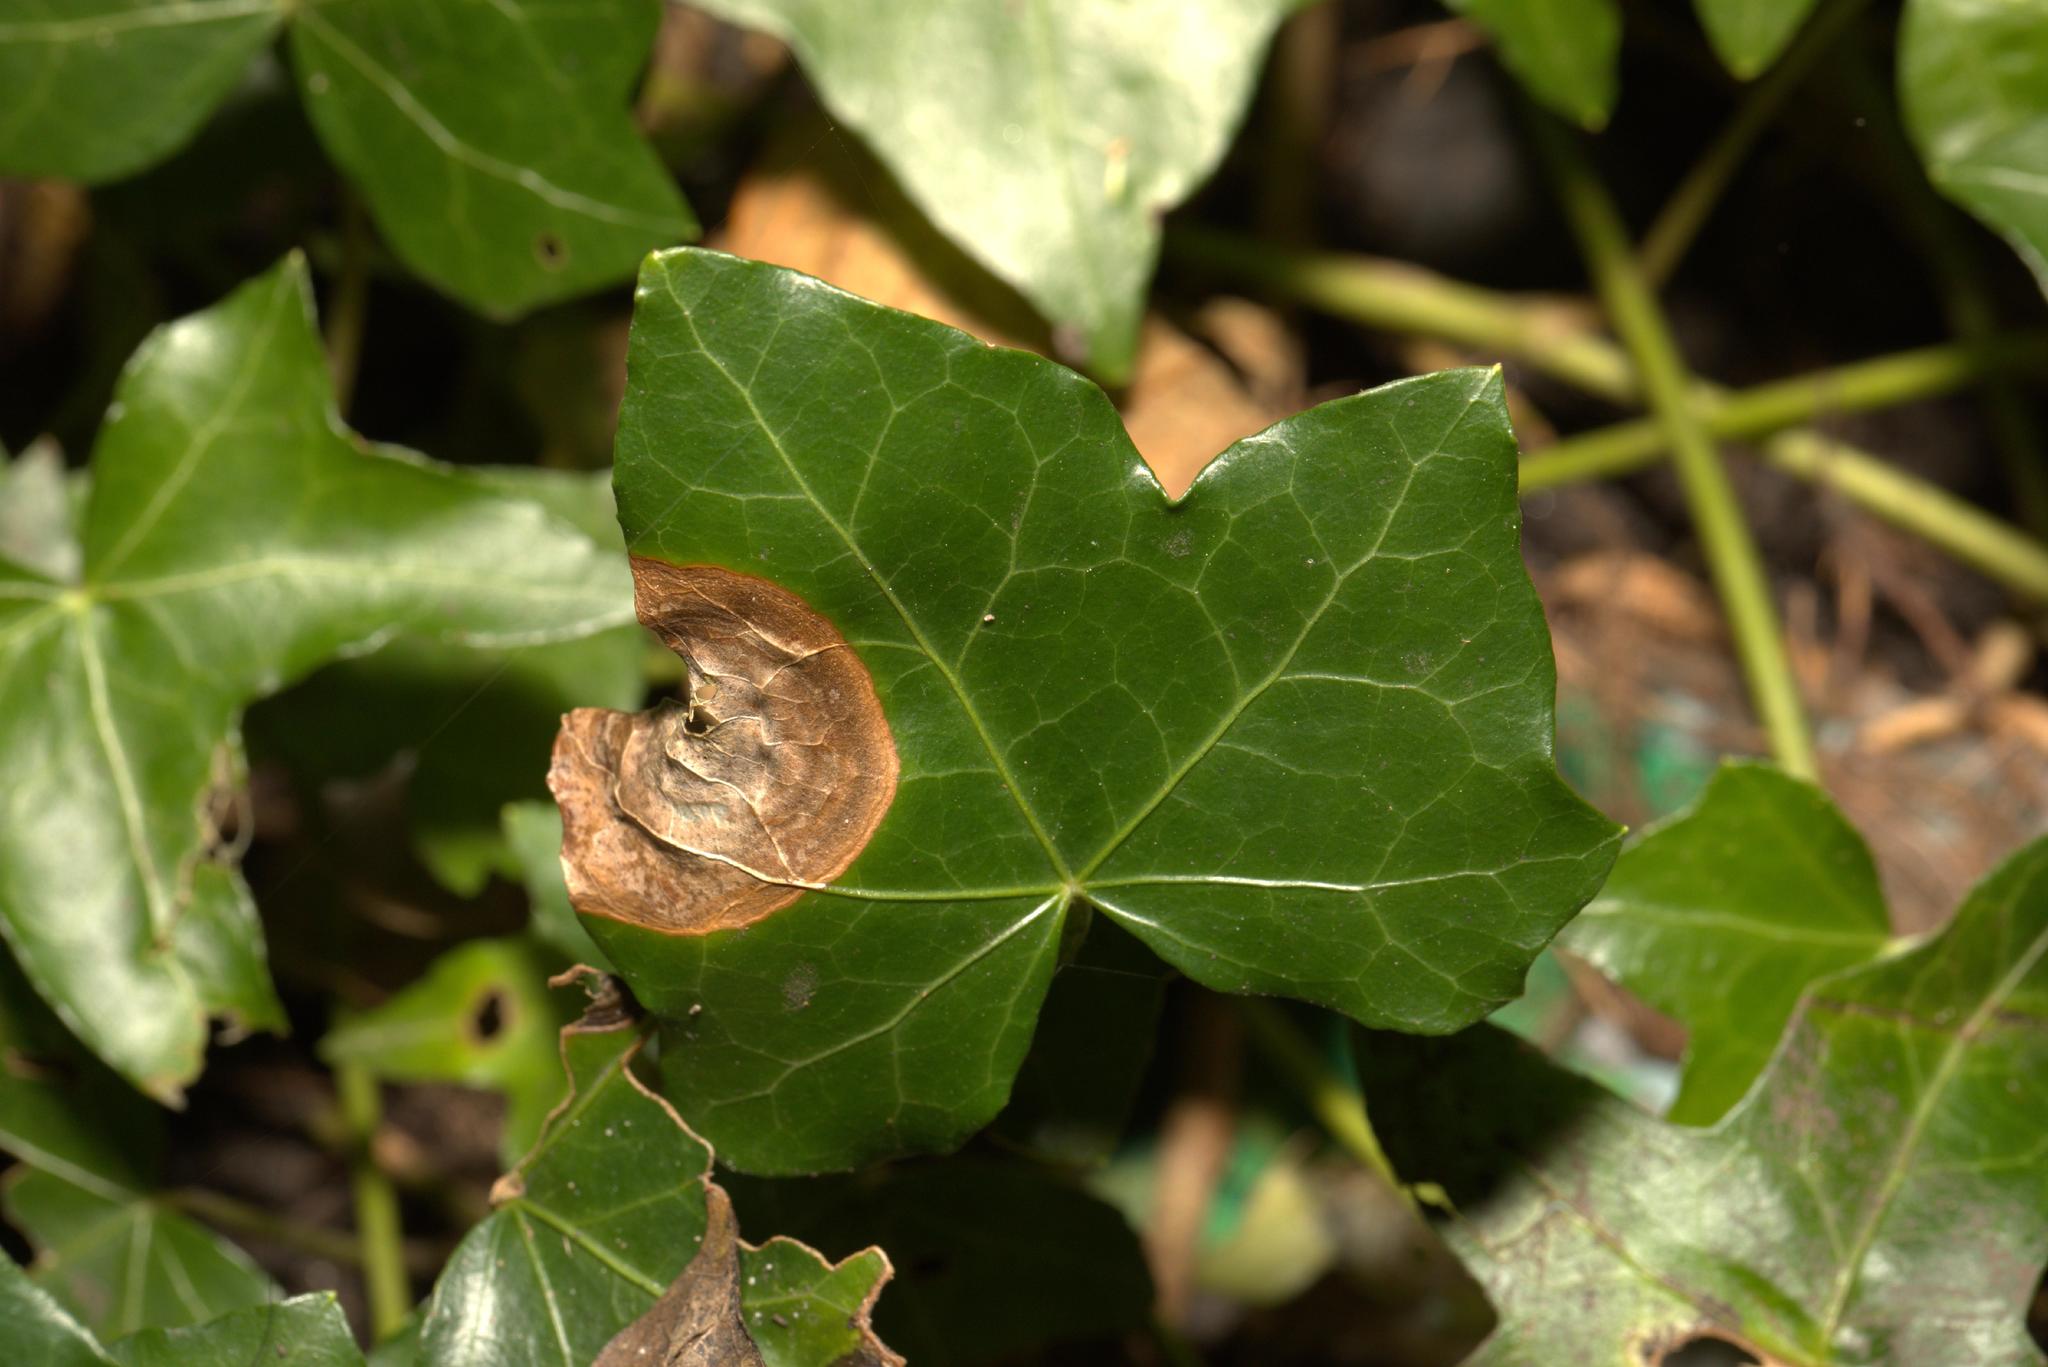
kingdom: Fungi
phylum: Ascomycota
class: Dothideomycetes
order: Pleosporales
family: Didymellaceae
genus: Boeremia
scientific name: Boeremia hedericola
